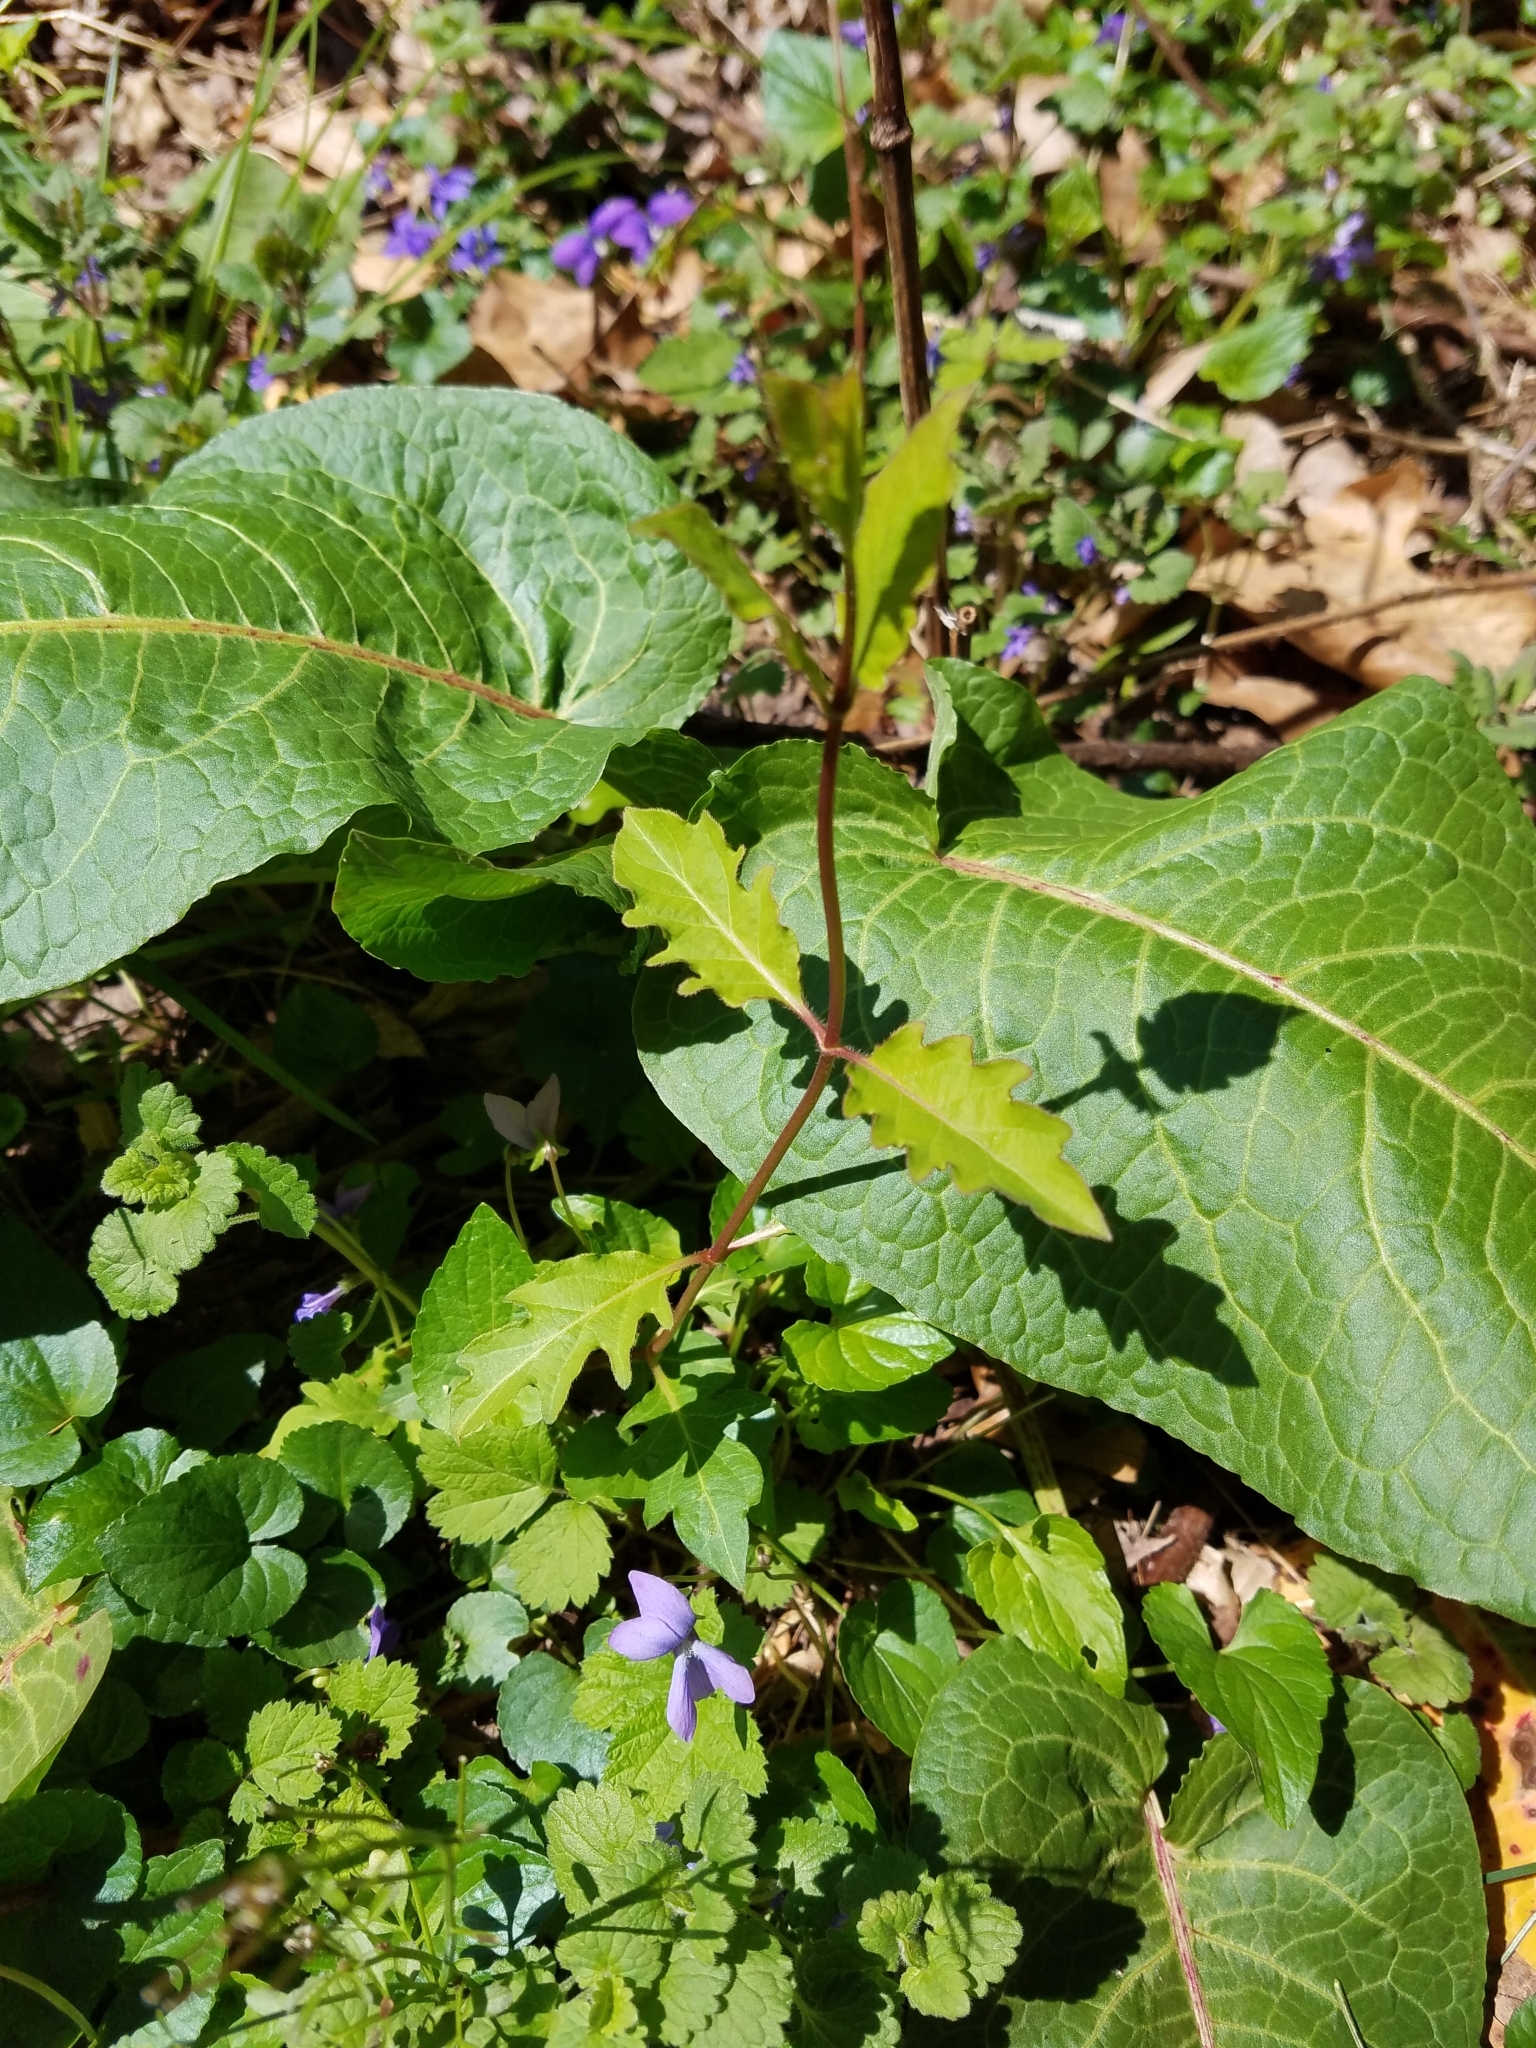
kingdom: Plantae
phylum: Tracheophyta
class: Magnoliopsida
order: Dipsacales
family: Caprifoliaceae
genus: Lonicera
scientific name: Lonicera japonica
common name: Japanese honeysuckle
